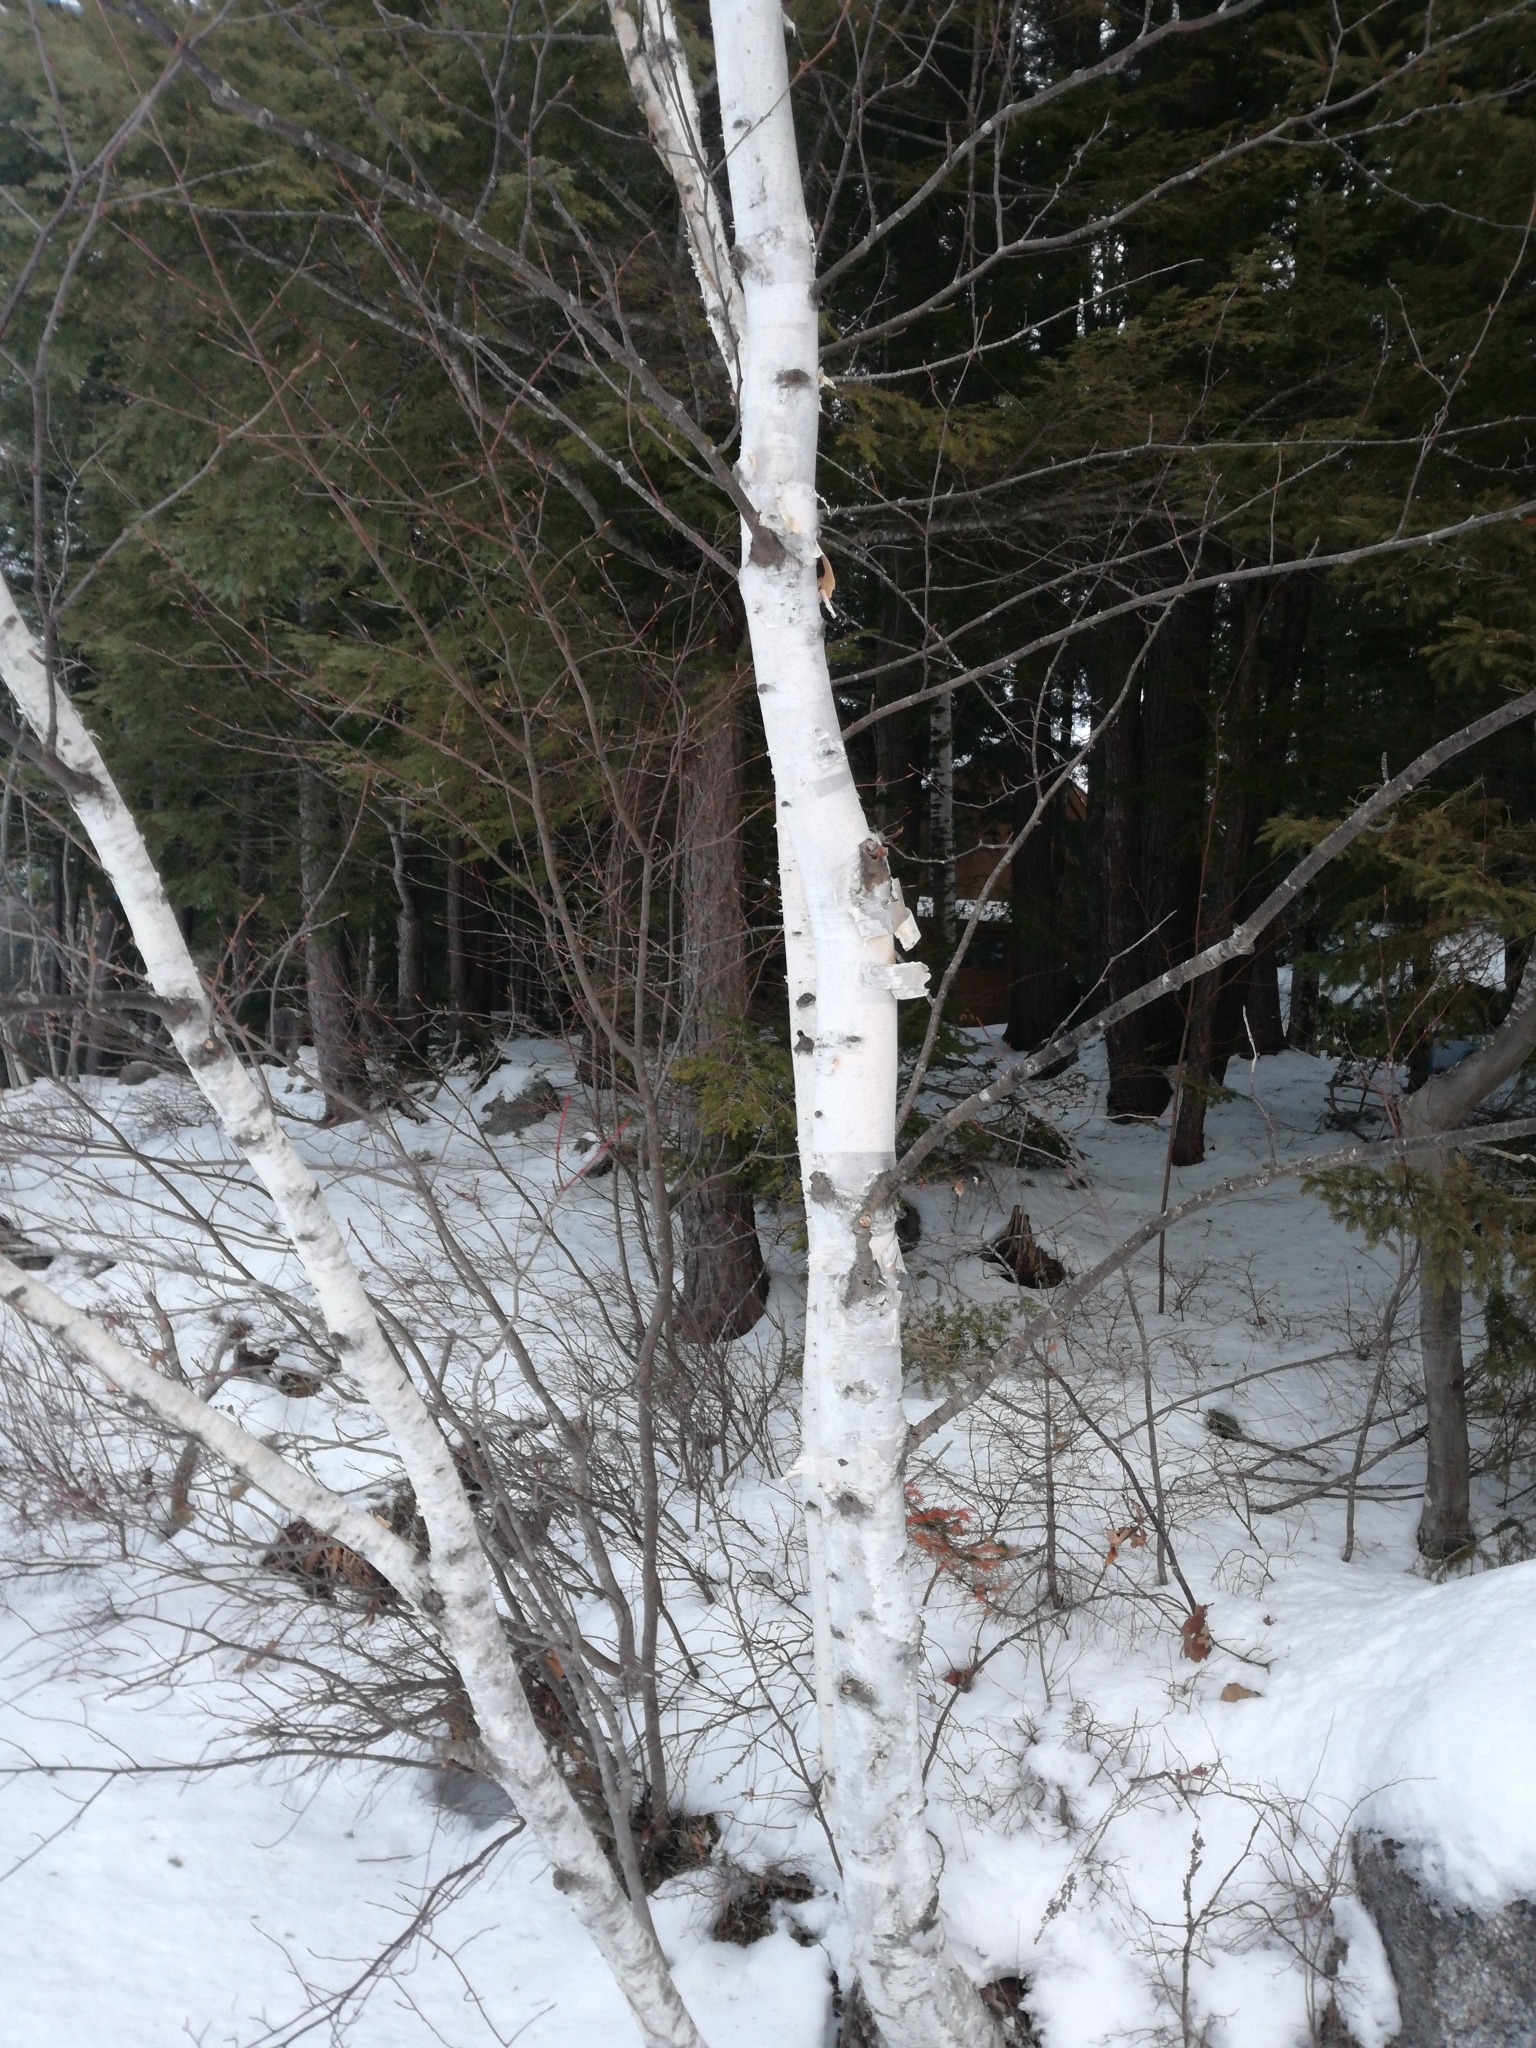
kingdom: Plantae
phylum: Tracheophyta
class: Magnoliopsida
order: Fagales
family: Betulaceae
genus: Betula
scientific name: Betula papyrifera
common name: Paper birch
